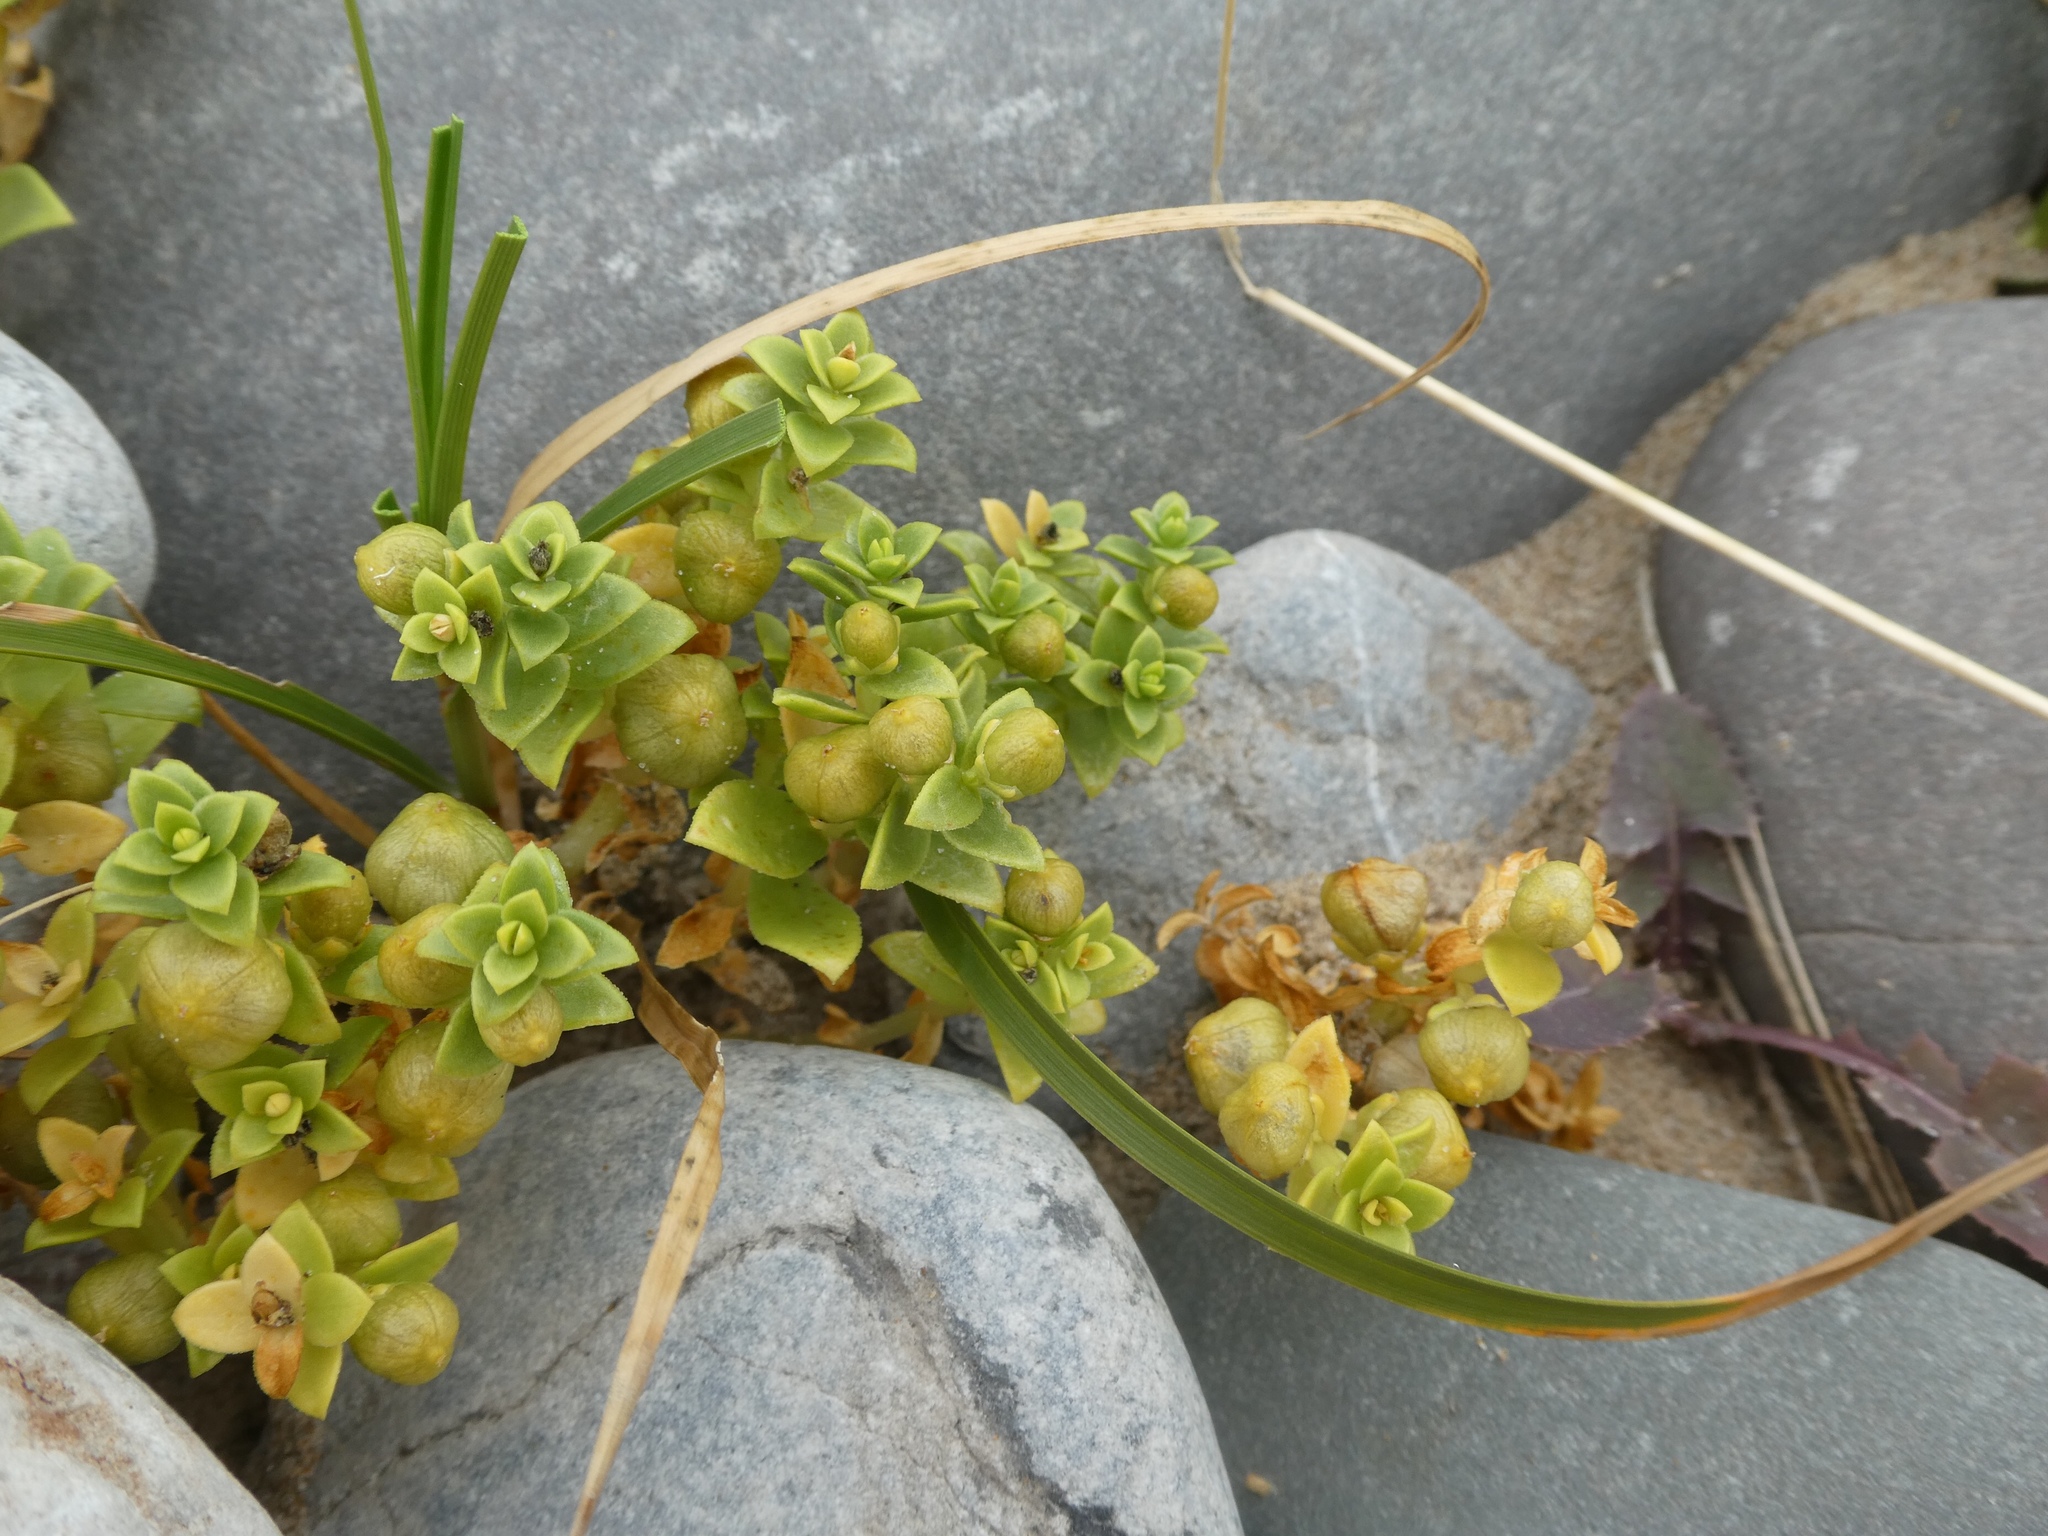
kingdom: Plantae
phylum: Tracheophyta
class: Magnoliopsida
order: Caryophyllales
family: Caryophyllaceae
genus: Honckenya
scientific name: Honckenya peploides
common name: Sea sandwort
